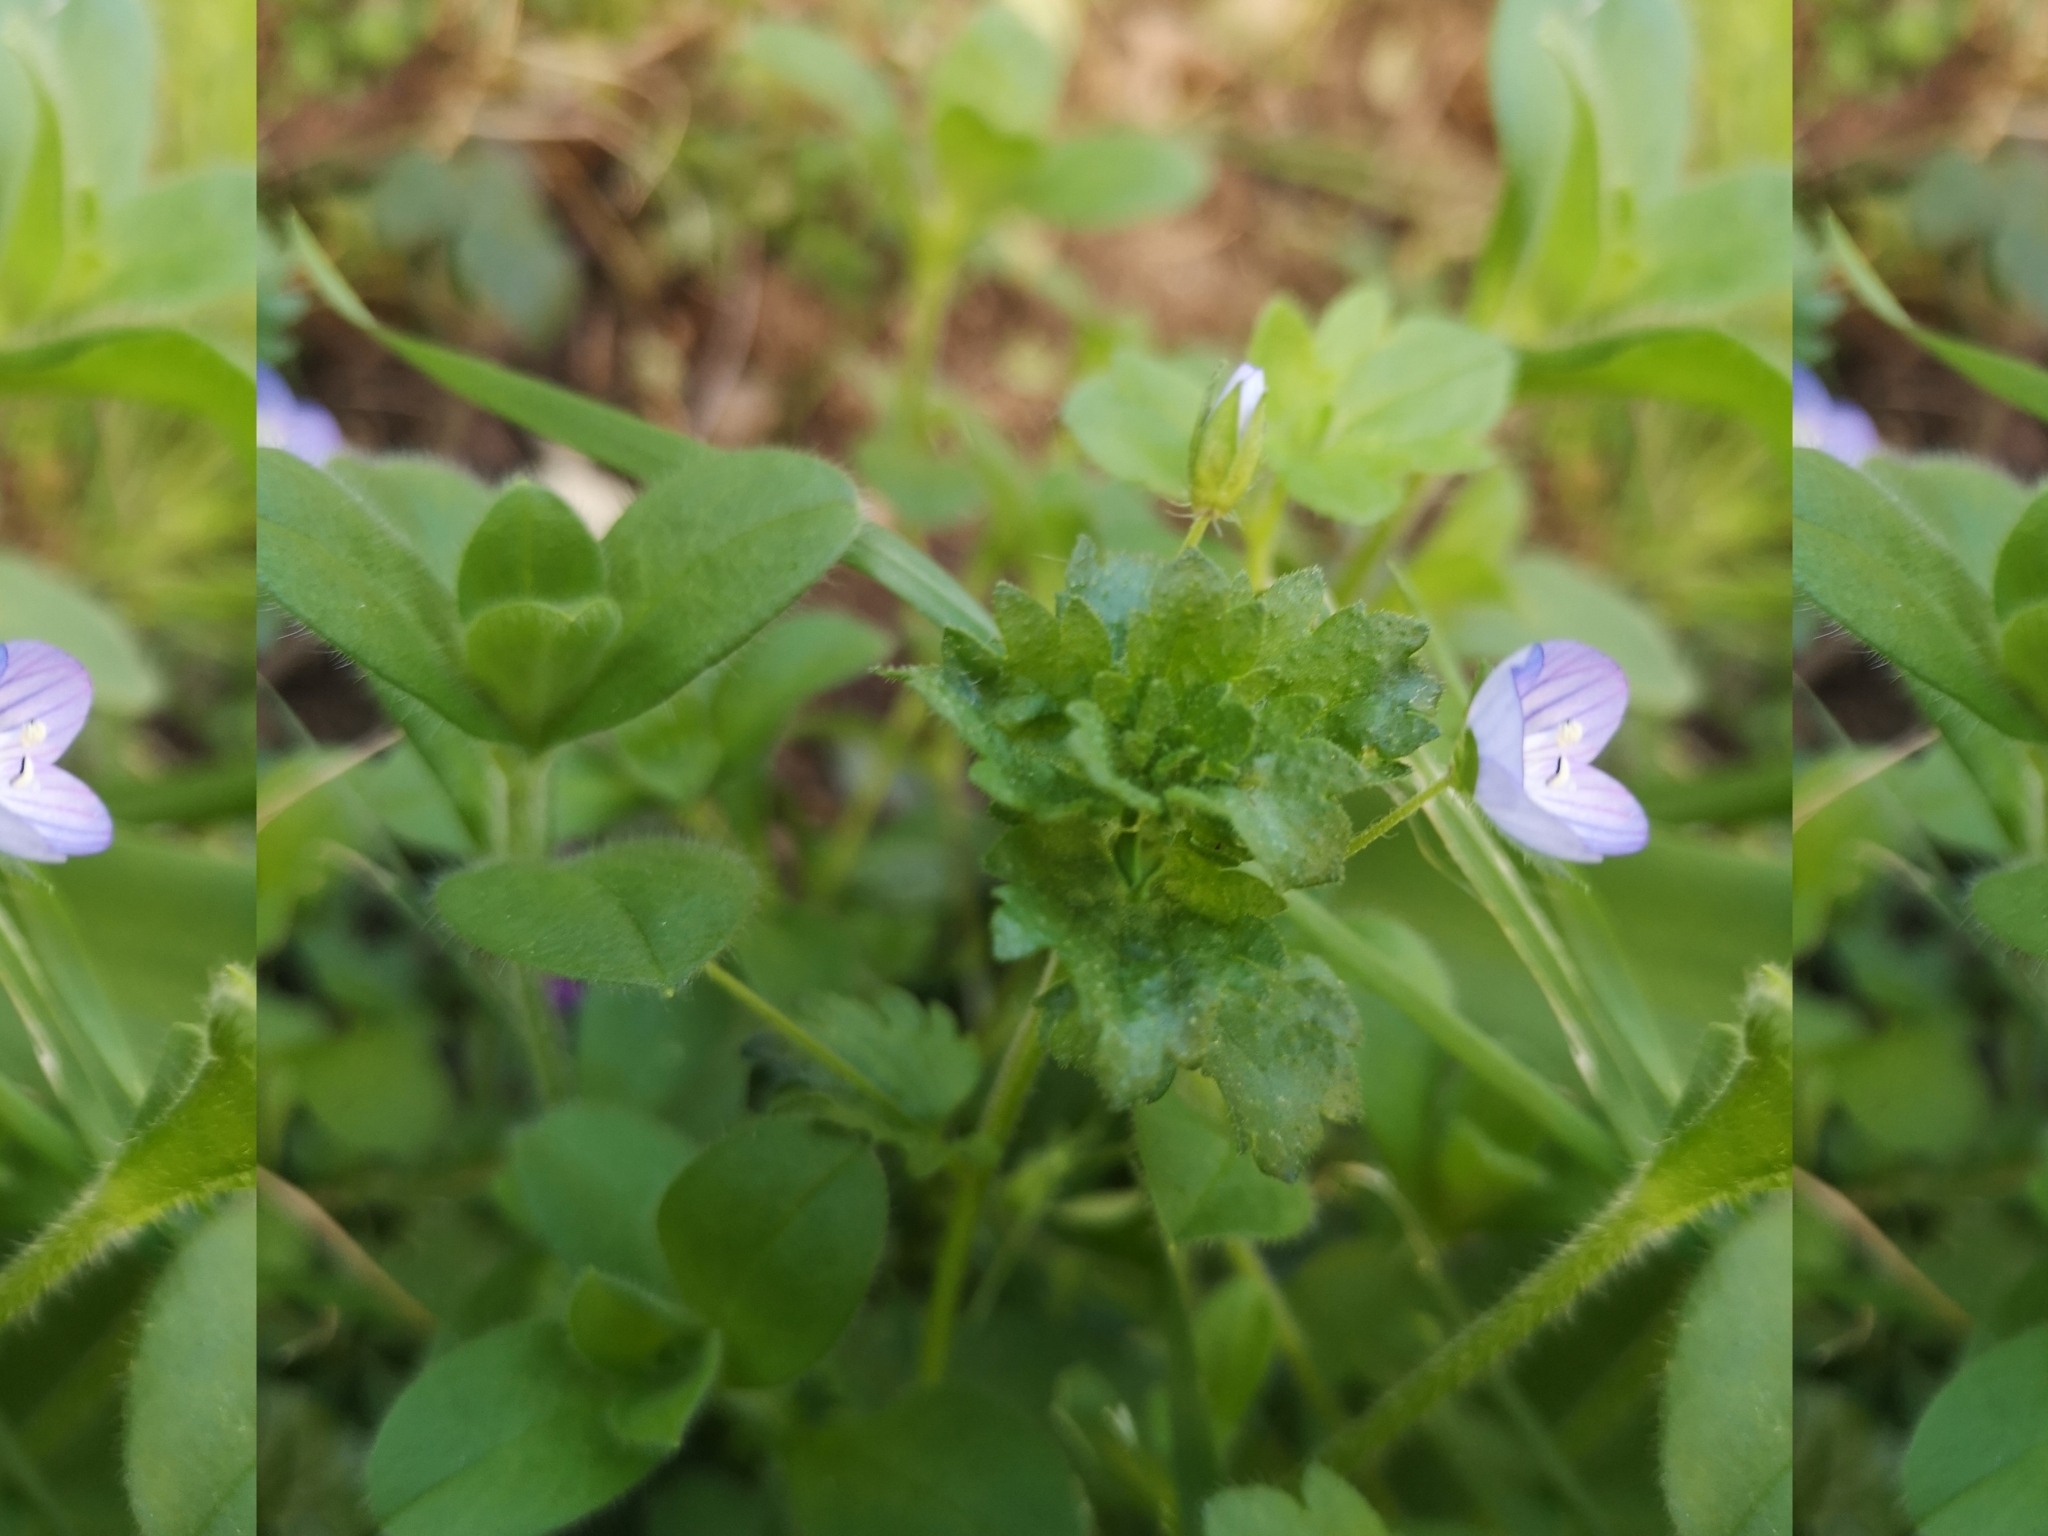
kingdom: Plantae
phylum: Tracheophyta
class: Magnoliopsida
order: Lamiales
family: Plantaginaceae
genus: Veronica
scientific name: Veronica persica
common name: Common field-speedwell
